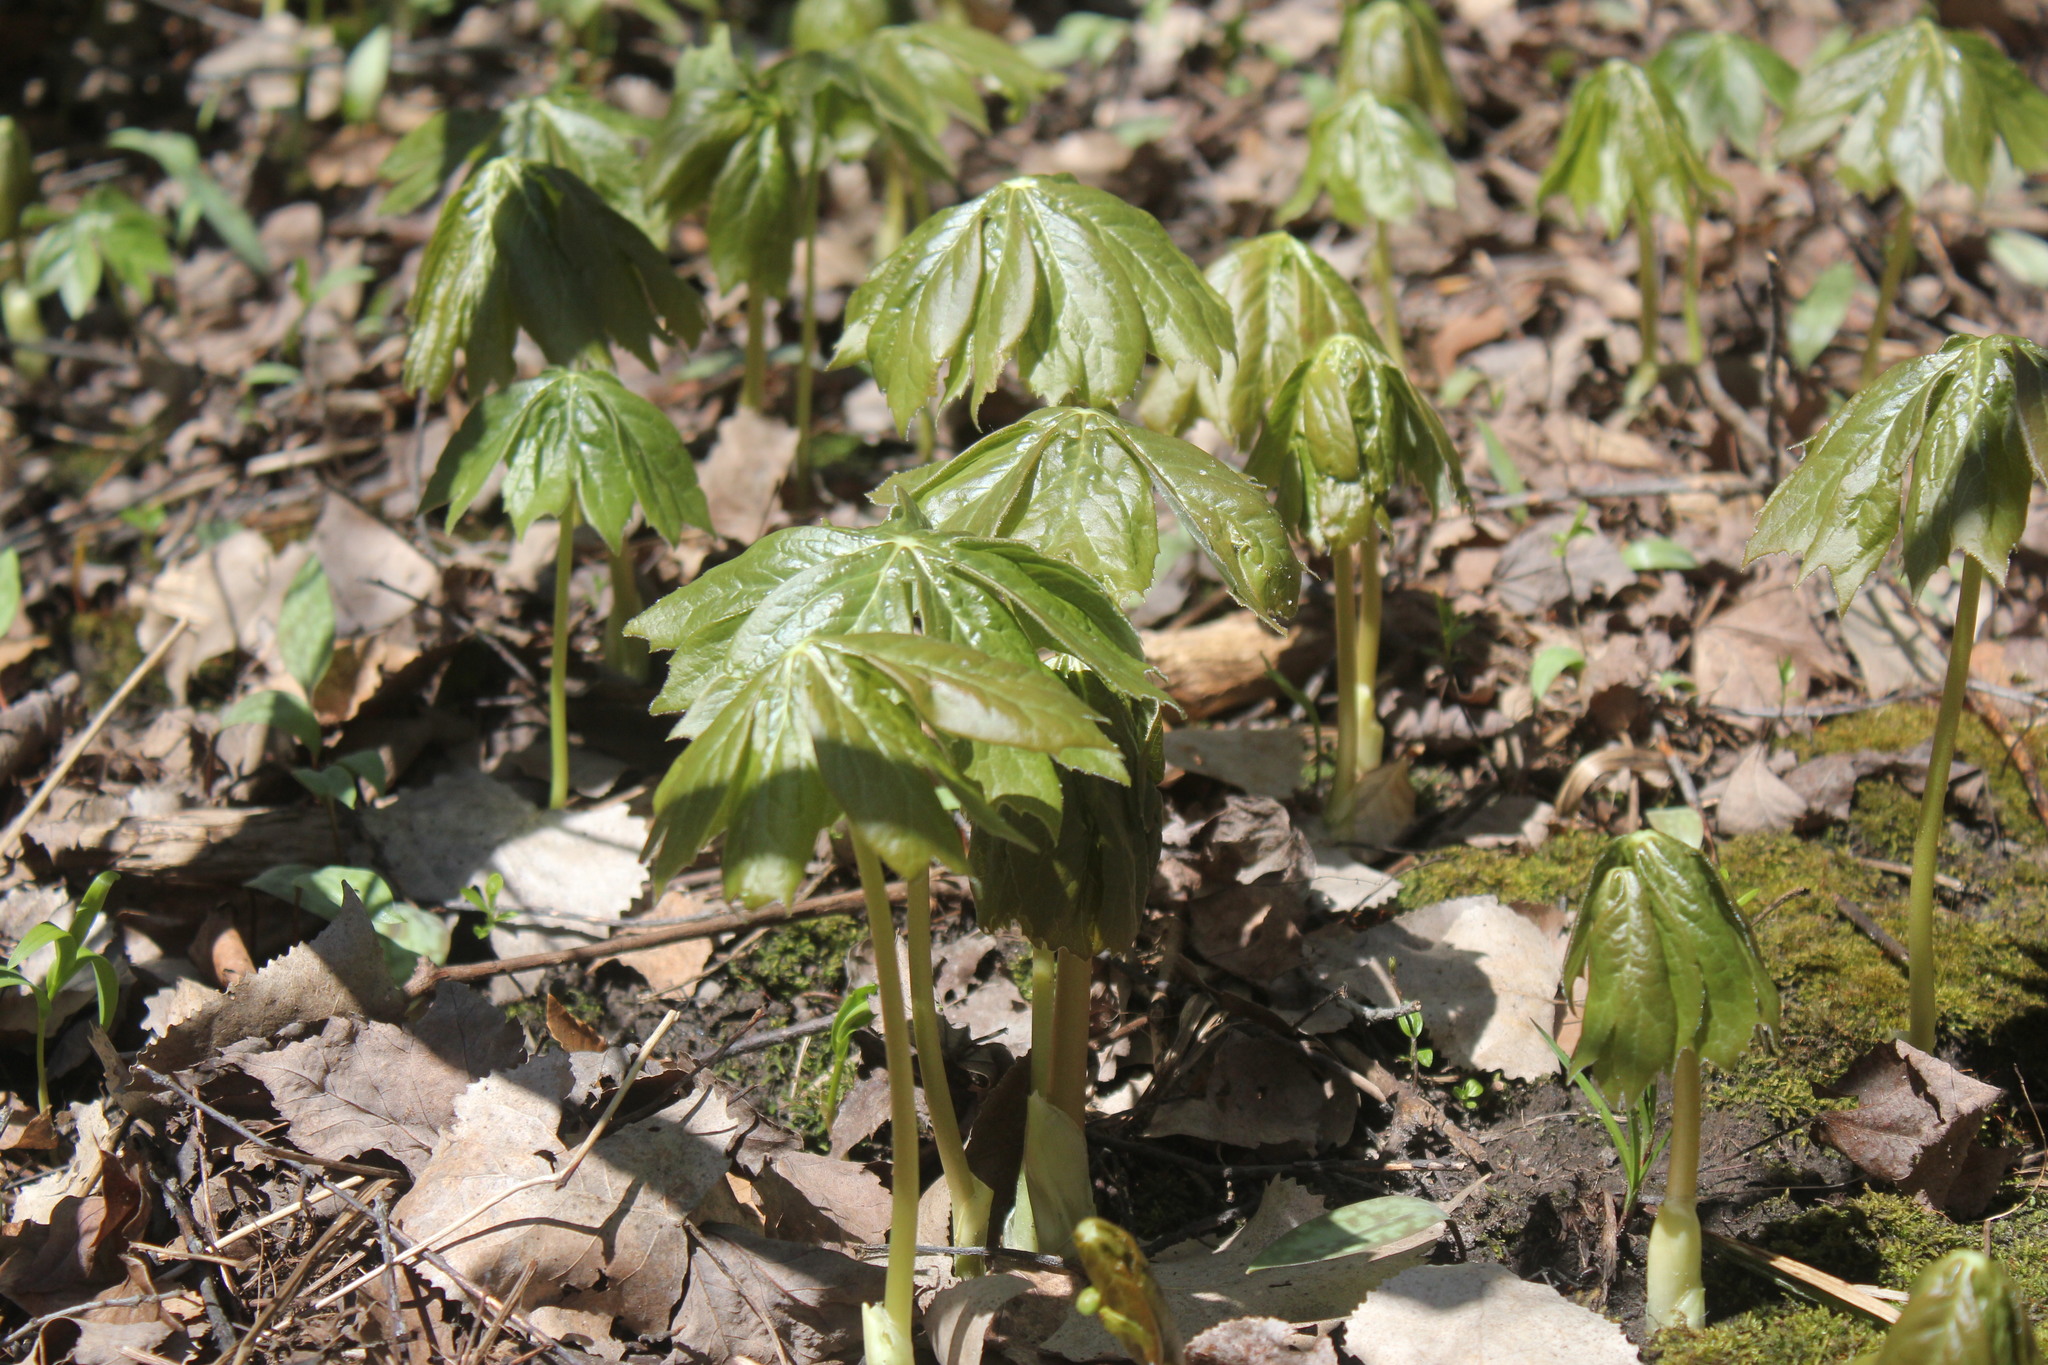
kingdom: Plantae
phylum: Tracheophyta
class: Magnoliopsida
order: Ranunculales
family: Berberidaceae
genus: Podophyllum
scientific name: Podophyllum peltatum
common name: Wild mandrake
